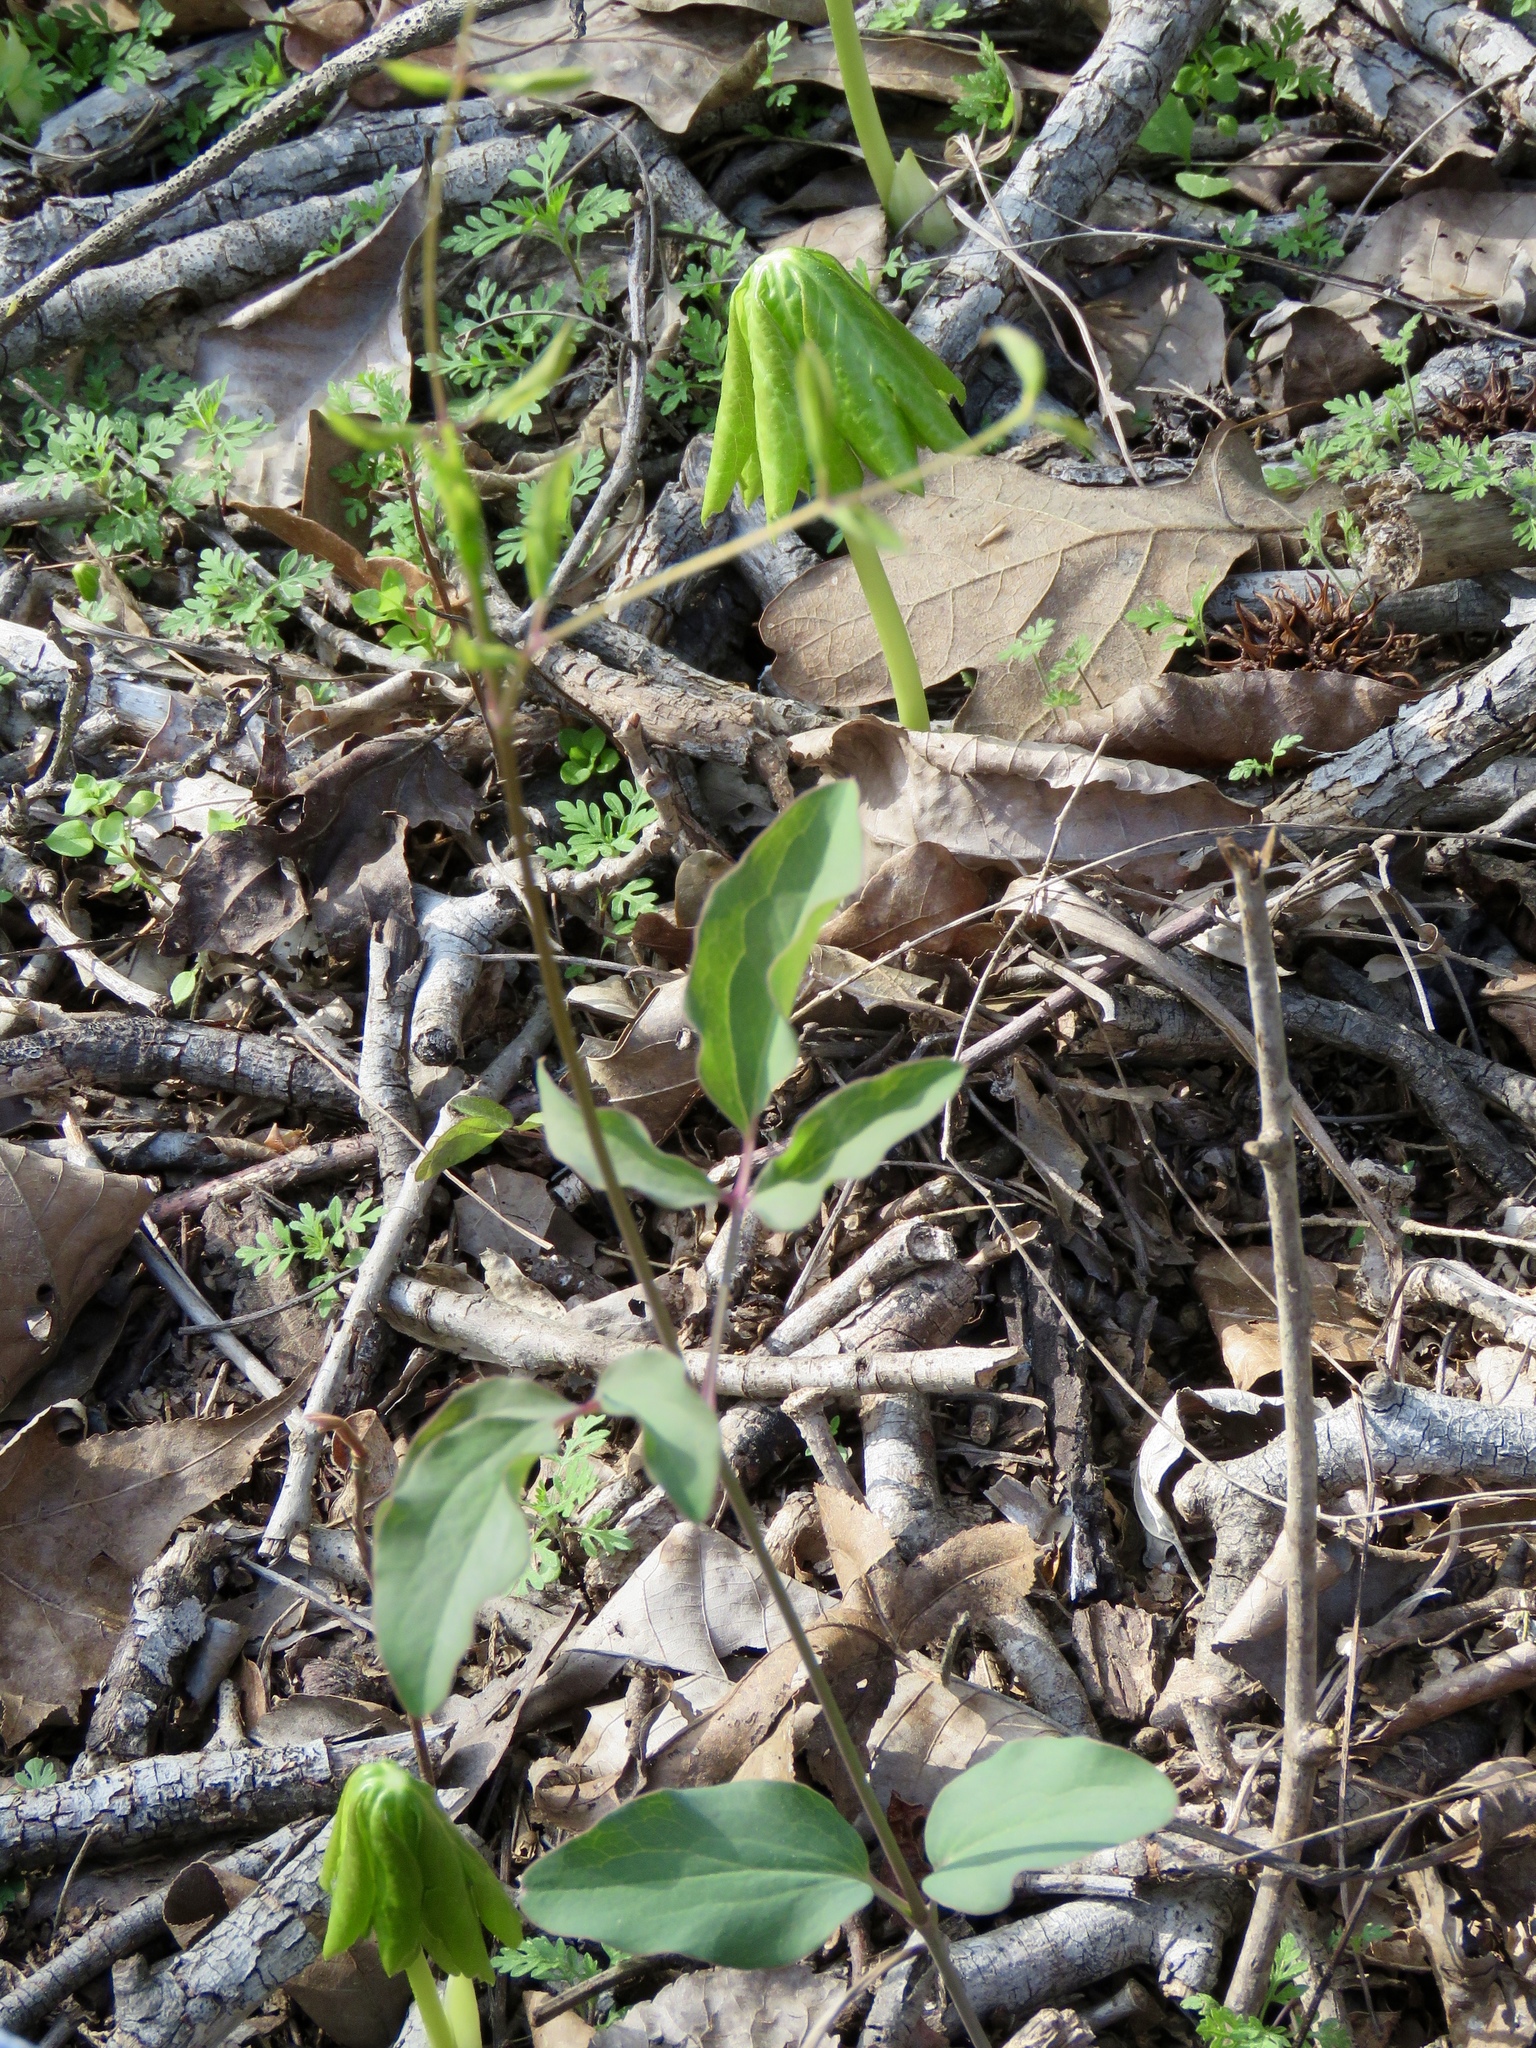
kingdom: Plantae
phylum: Tracheophyta
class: Magnoliopsida
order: Ranunculales
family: Ranunculaceae
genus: Clematis
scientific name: Clematis carrizoensis
